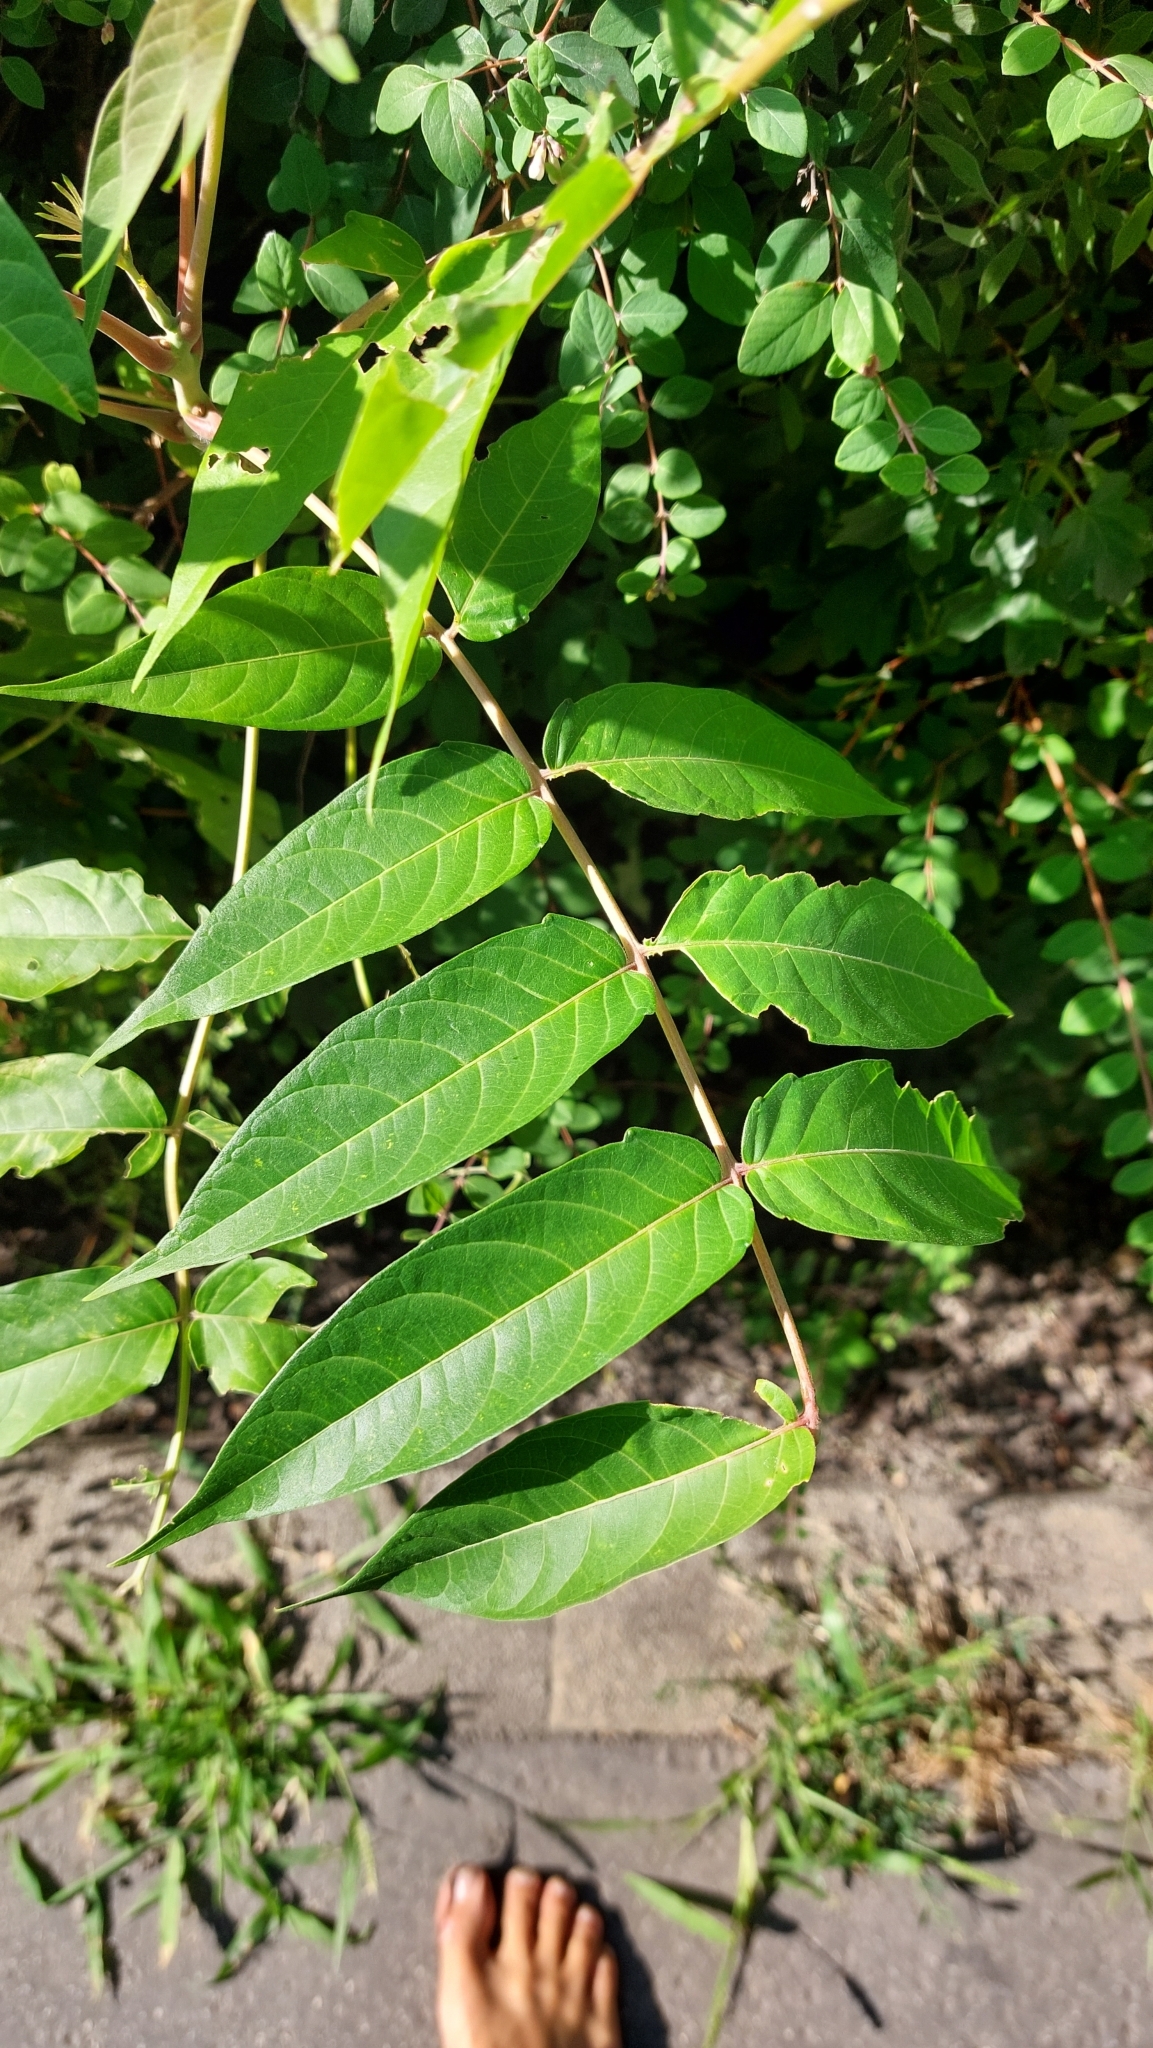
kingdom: Plantae
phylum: Tracheophyta
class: Magnoliopsida
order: Sapindales
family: Simaroubaceae
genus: Ailanthus
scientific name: Ailanthus altissima
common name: Tree-of-heaven
